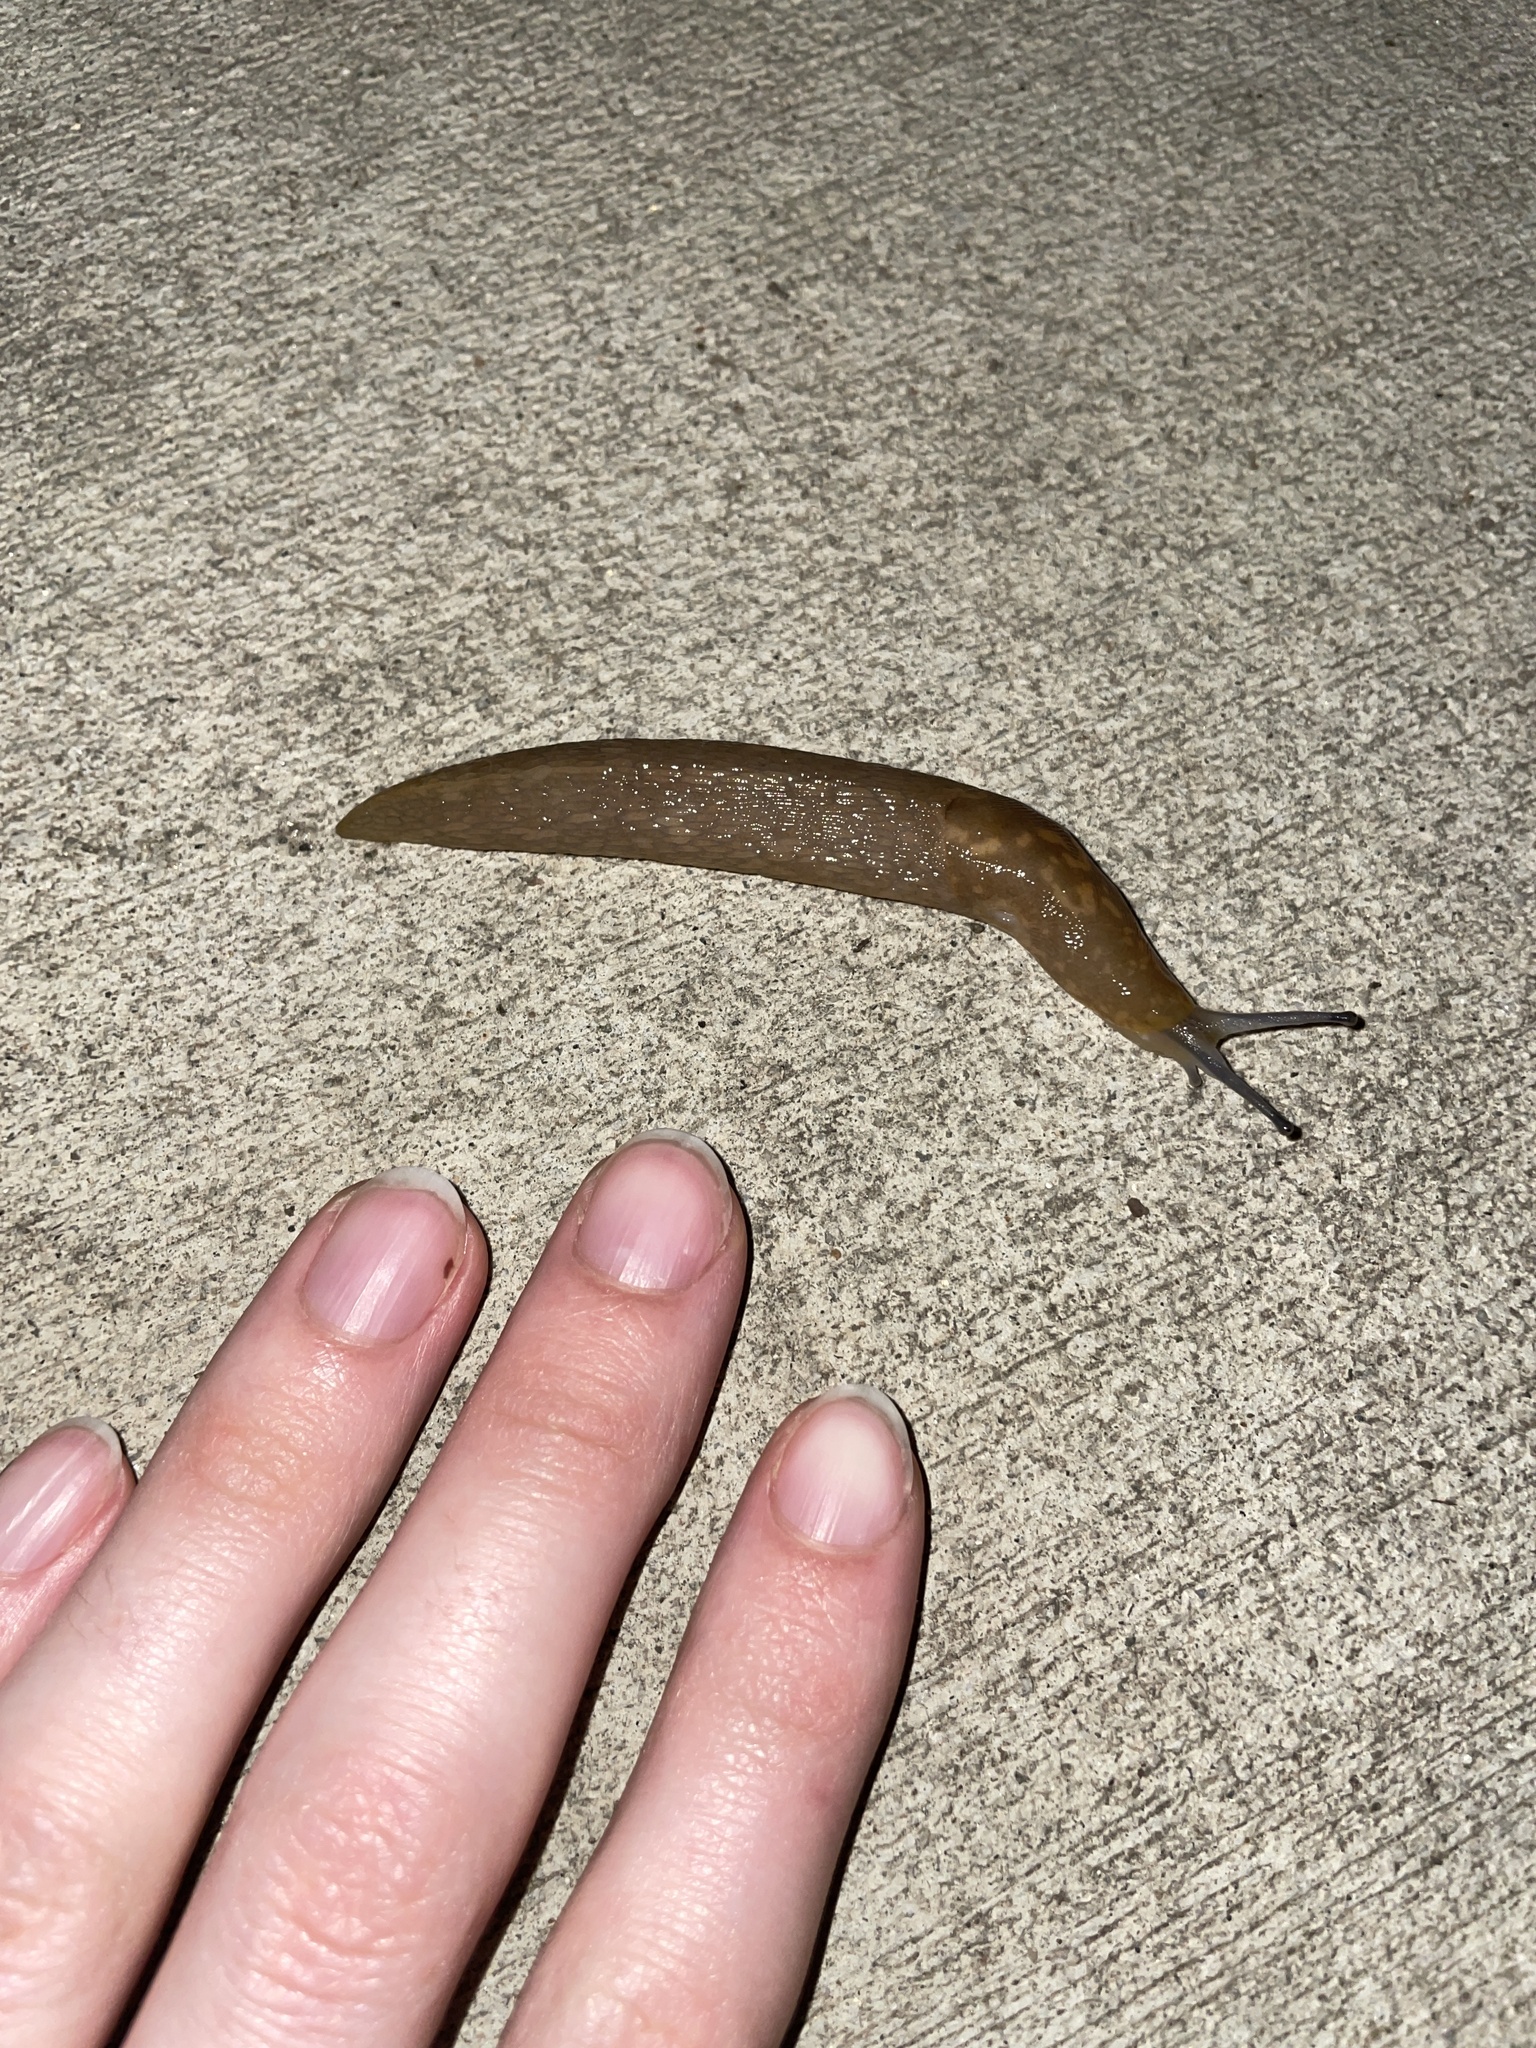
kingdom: Animalia
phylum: Mollusca
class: Gastropoda
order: Stylommatophora
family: Limacidae
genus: Limacus
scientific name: Limacus flavus
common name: Yellow gardenslug
